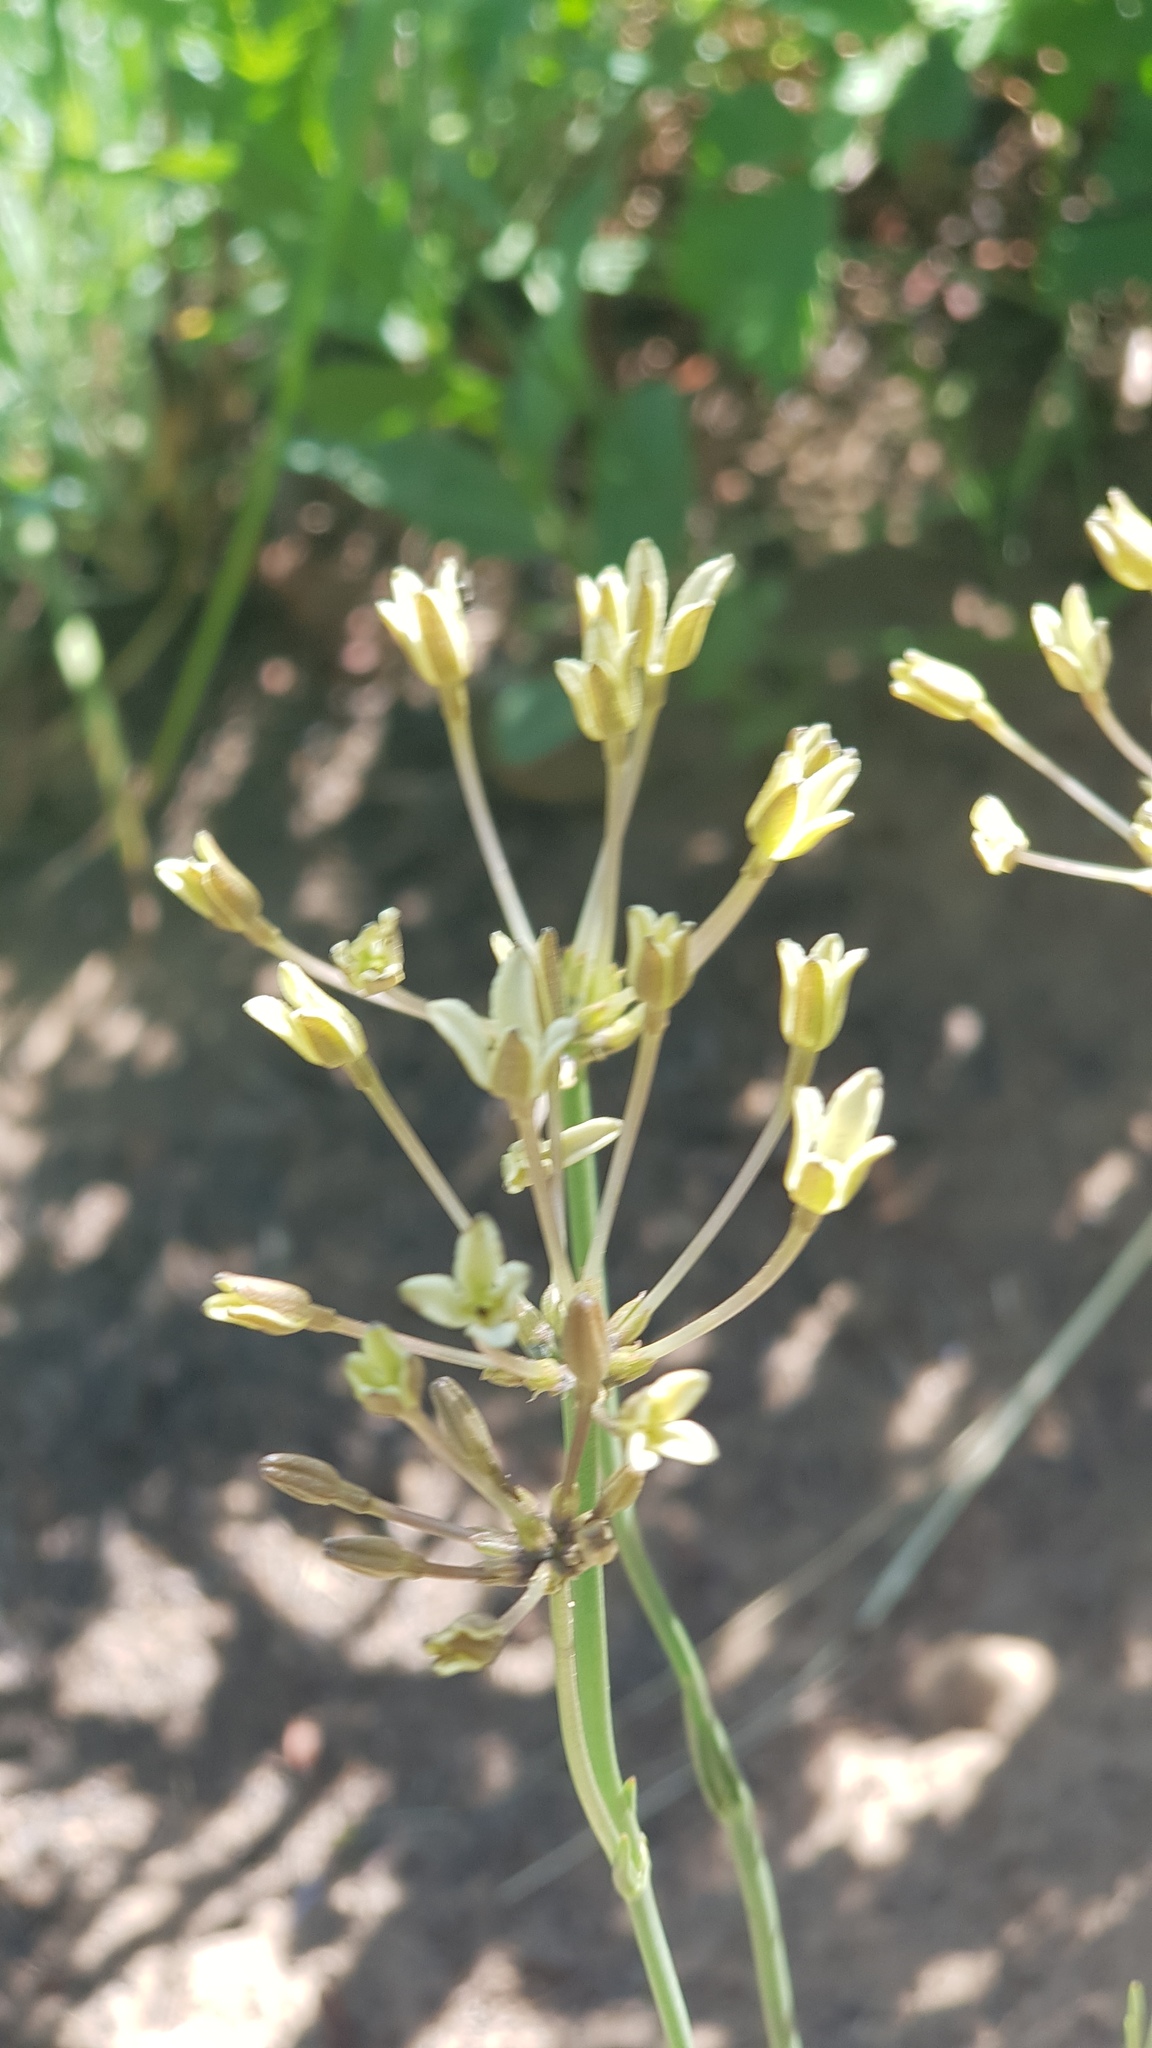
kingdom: Plantae
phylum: Tracheophyta
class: Magnoliopsida
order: Gentianales
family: Rubiaceae
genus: Kohautia
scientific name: Kohautia amatymbica
